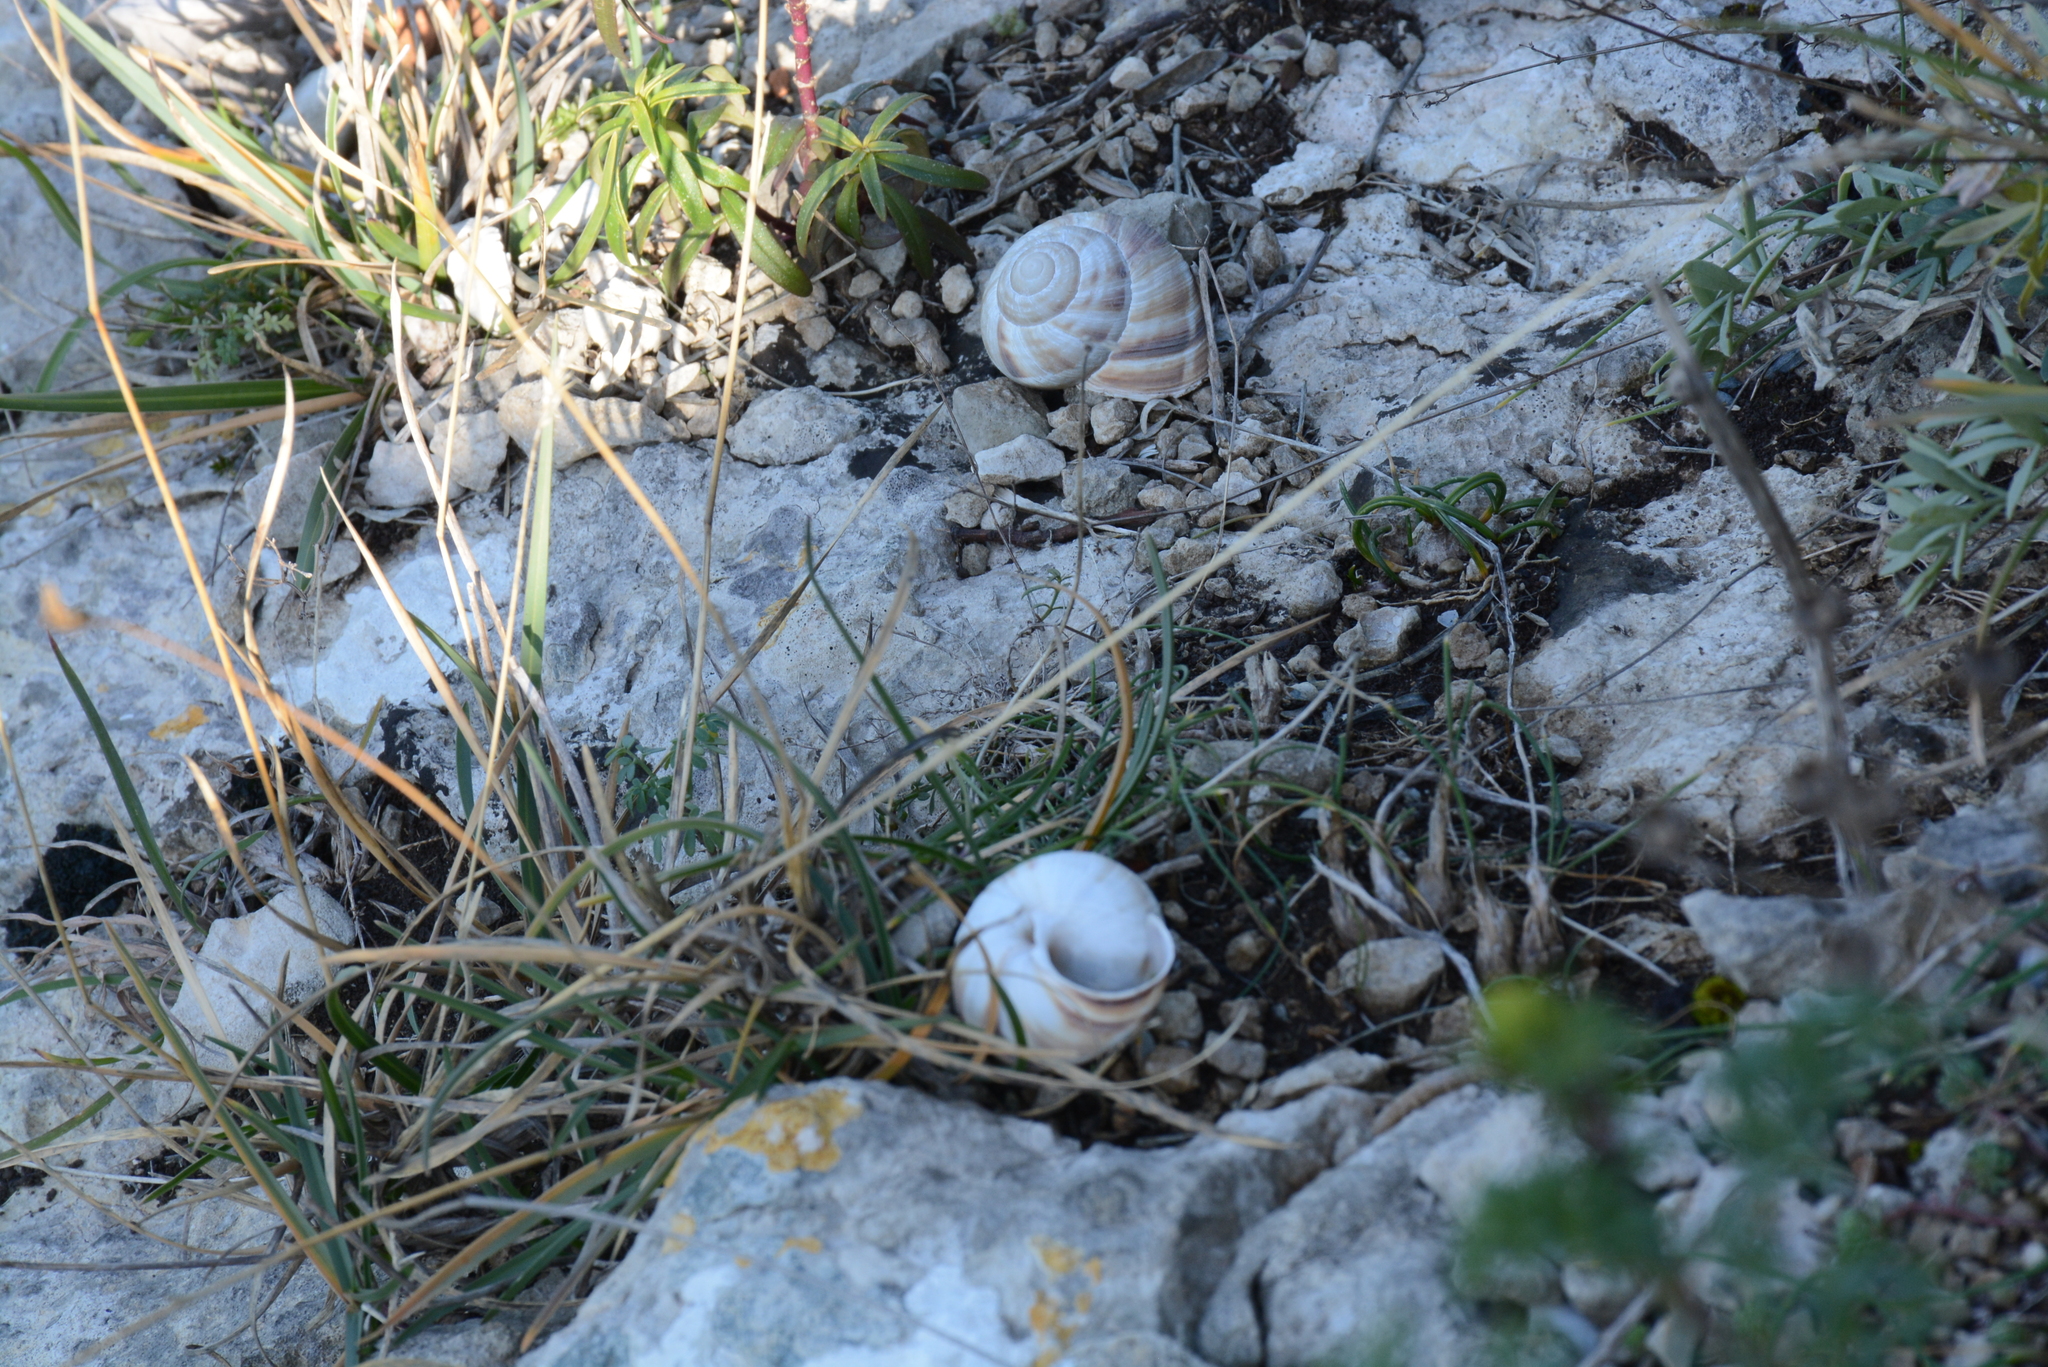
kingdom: Animalia
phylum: Mollusca
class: Gastropoda
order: Stylommatophora
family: Helicidae
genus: Helix
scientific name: Helix lucorum
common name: Turkish snail
